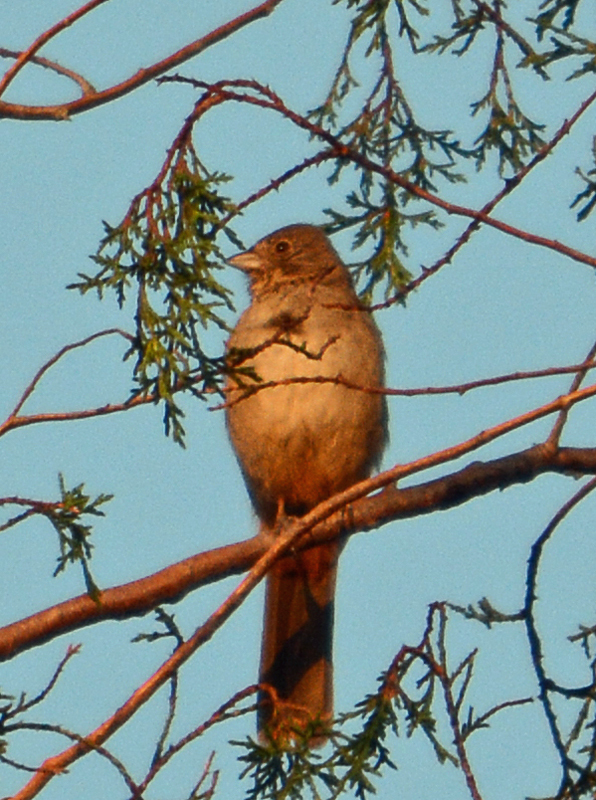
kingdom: Animalia
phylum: Chordata
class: Aves
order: Passeriformes
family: Passerellidae
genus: Melozone
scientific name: Melozone fusca
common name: Canyon towhee
